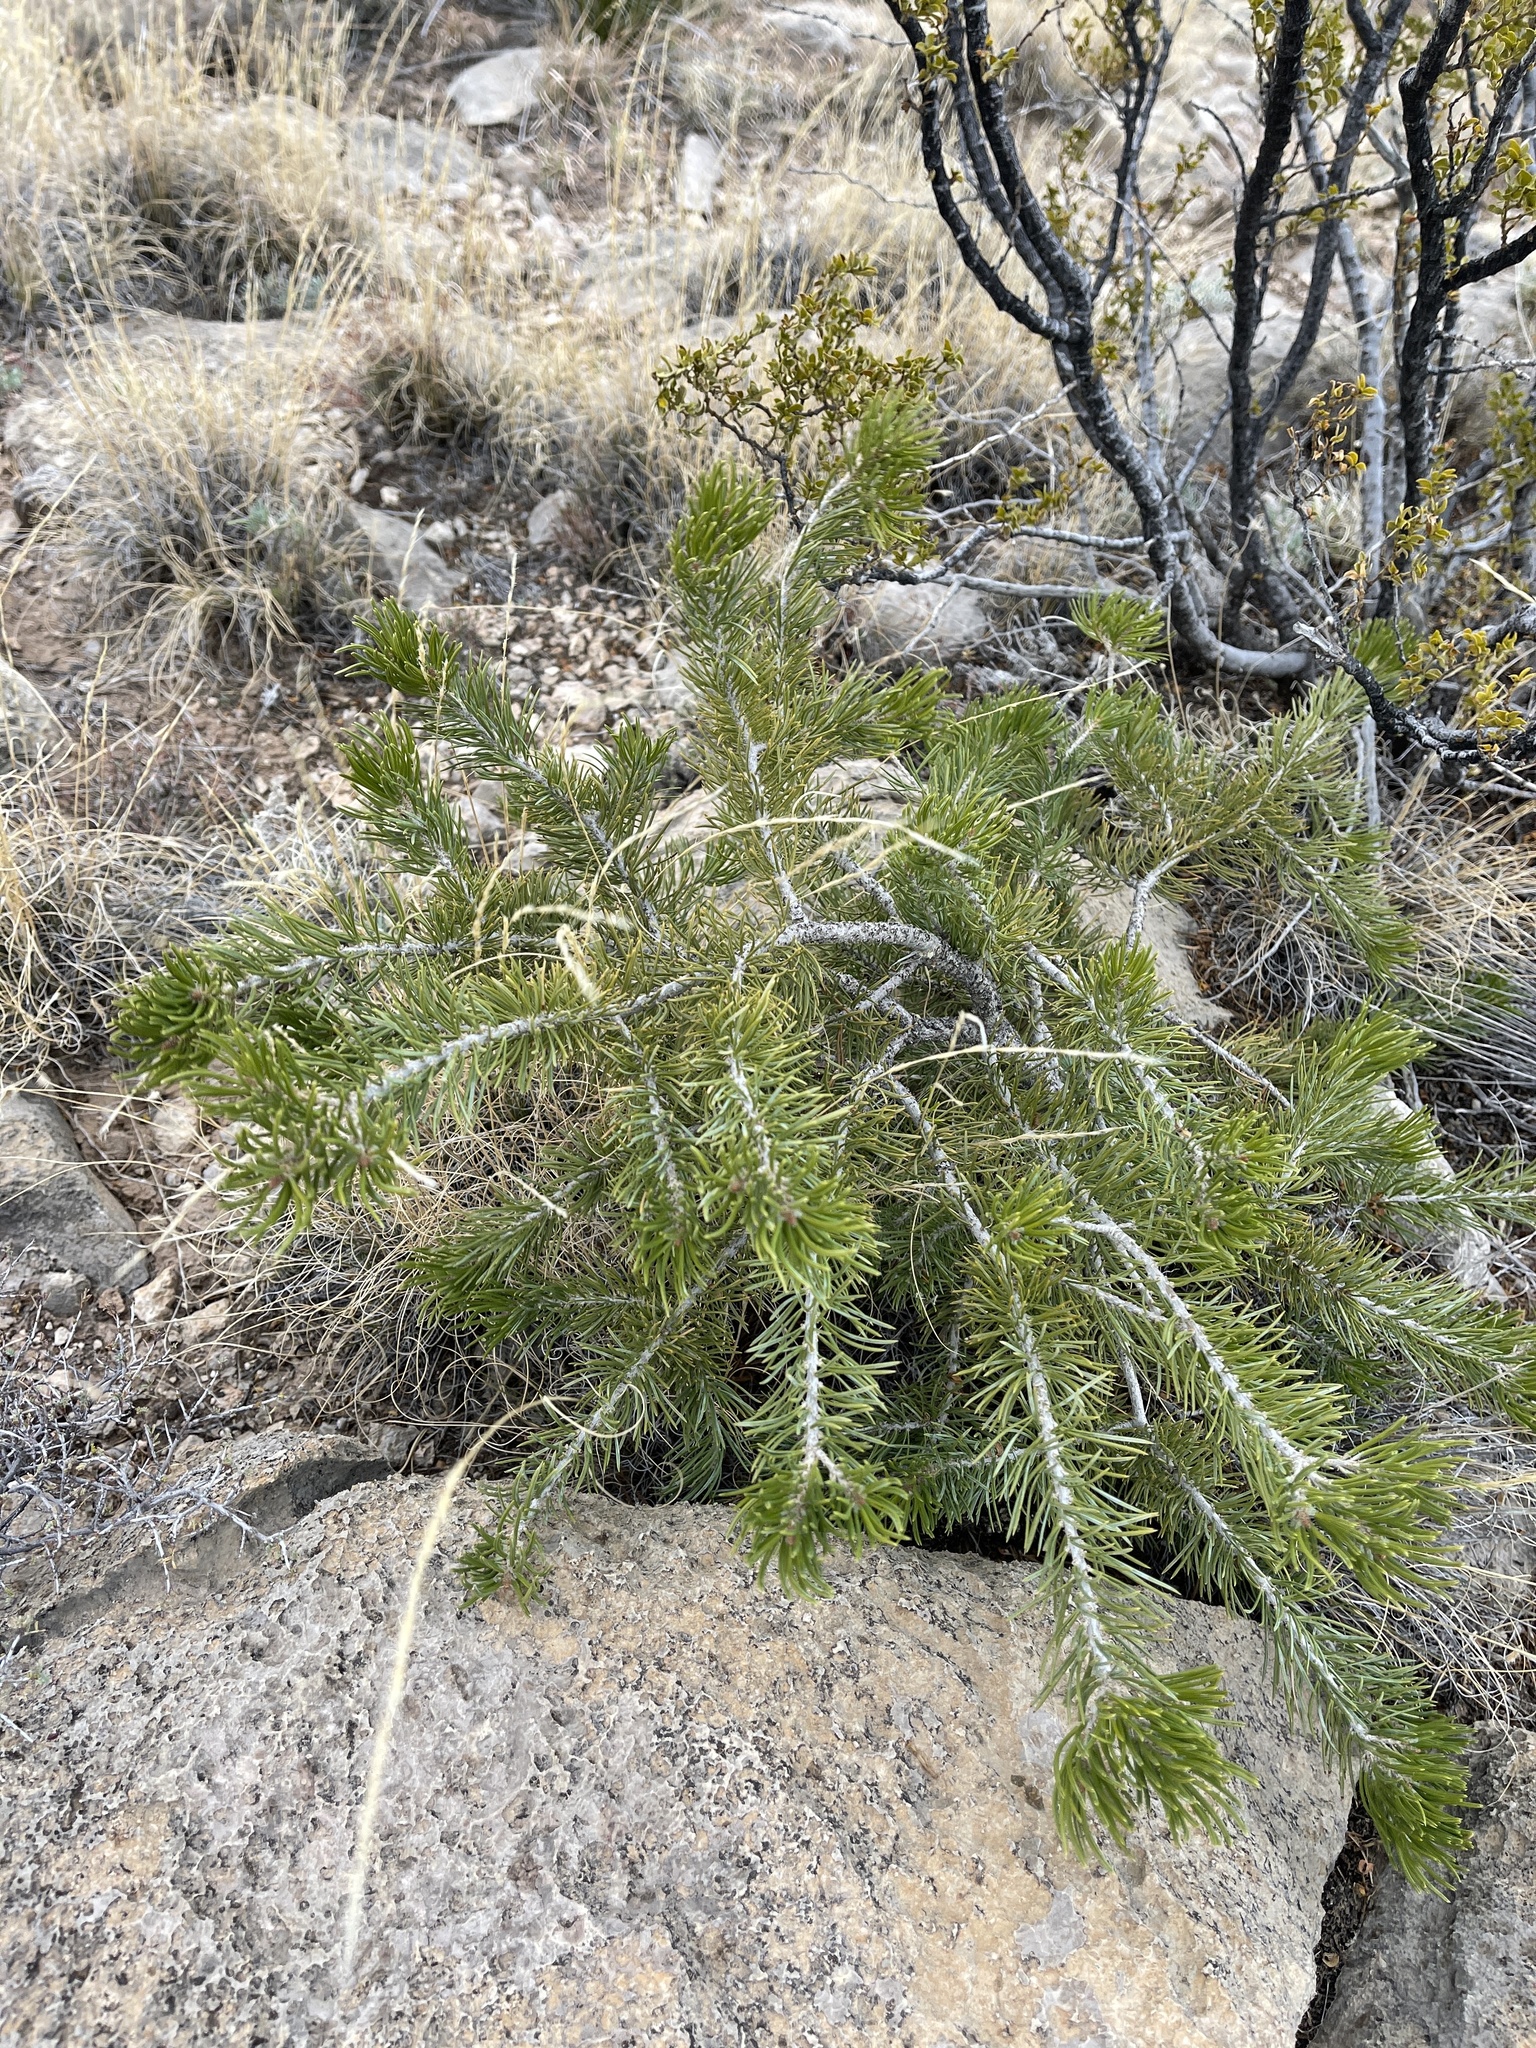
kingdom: Plantae
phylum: Tracheophyta
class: Pinopsida
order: Pinales
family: Pinaceae
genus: Pinus
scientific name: Pinus edulis
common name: Colorado pinyon
